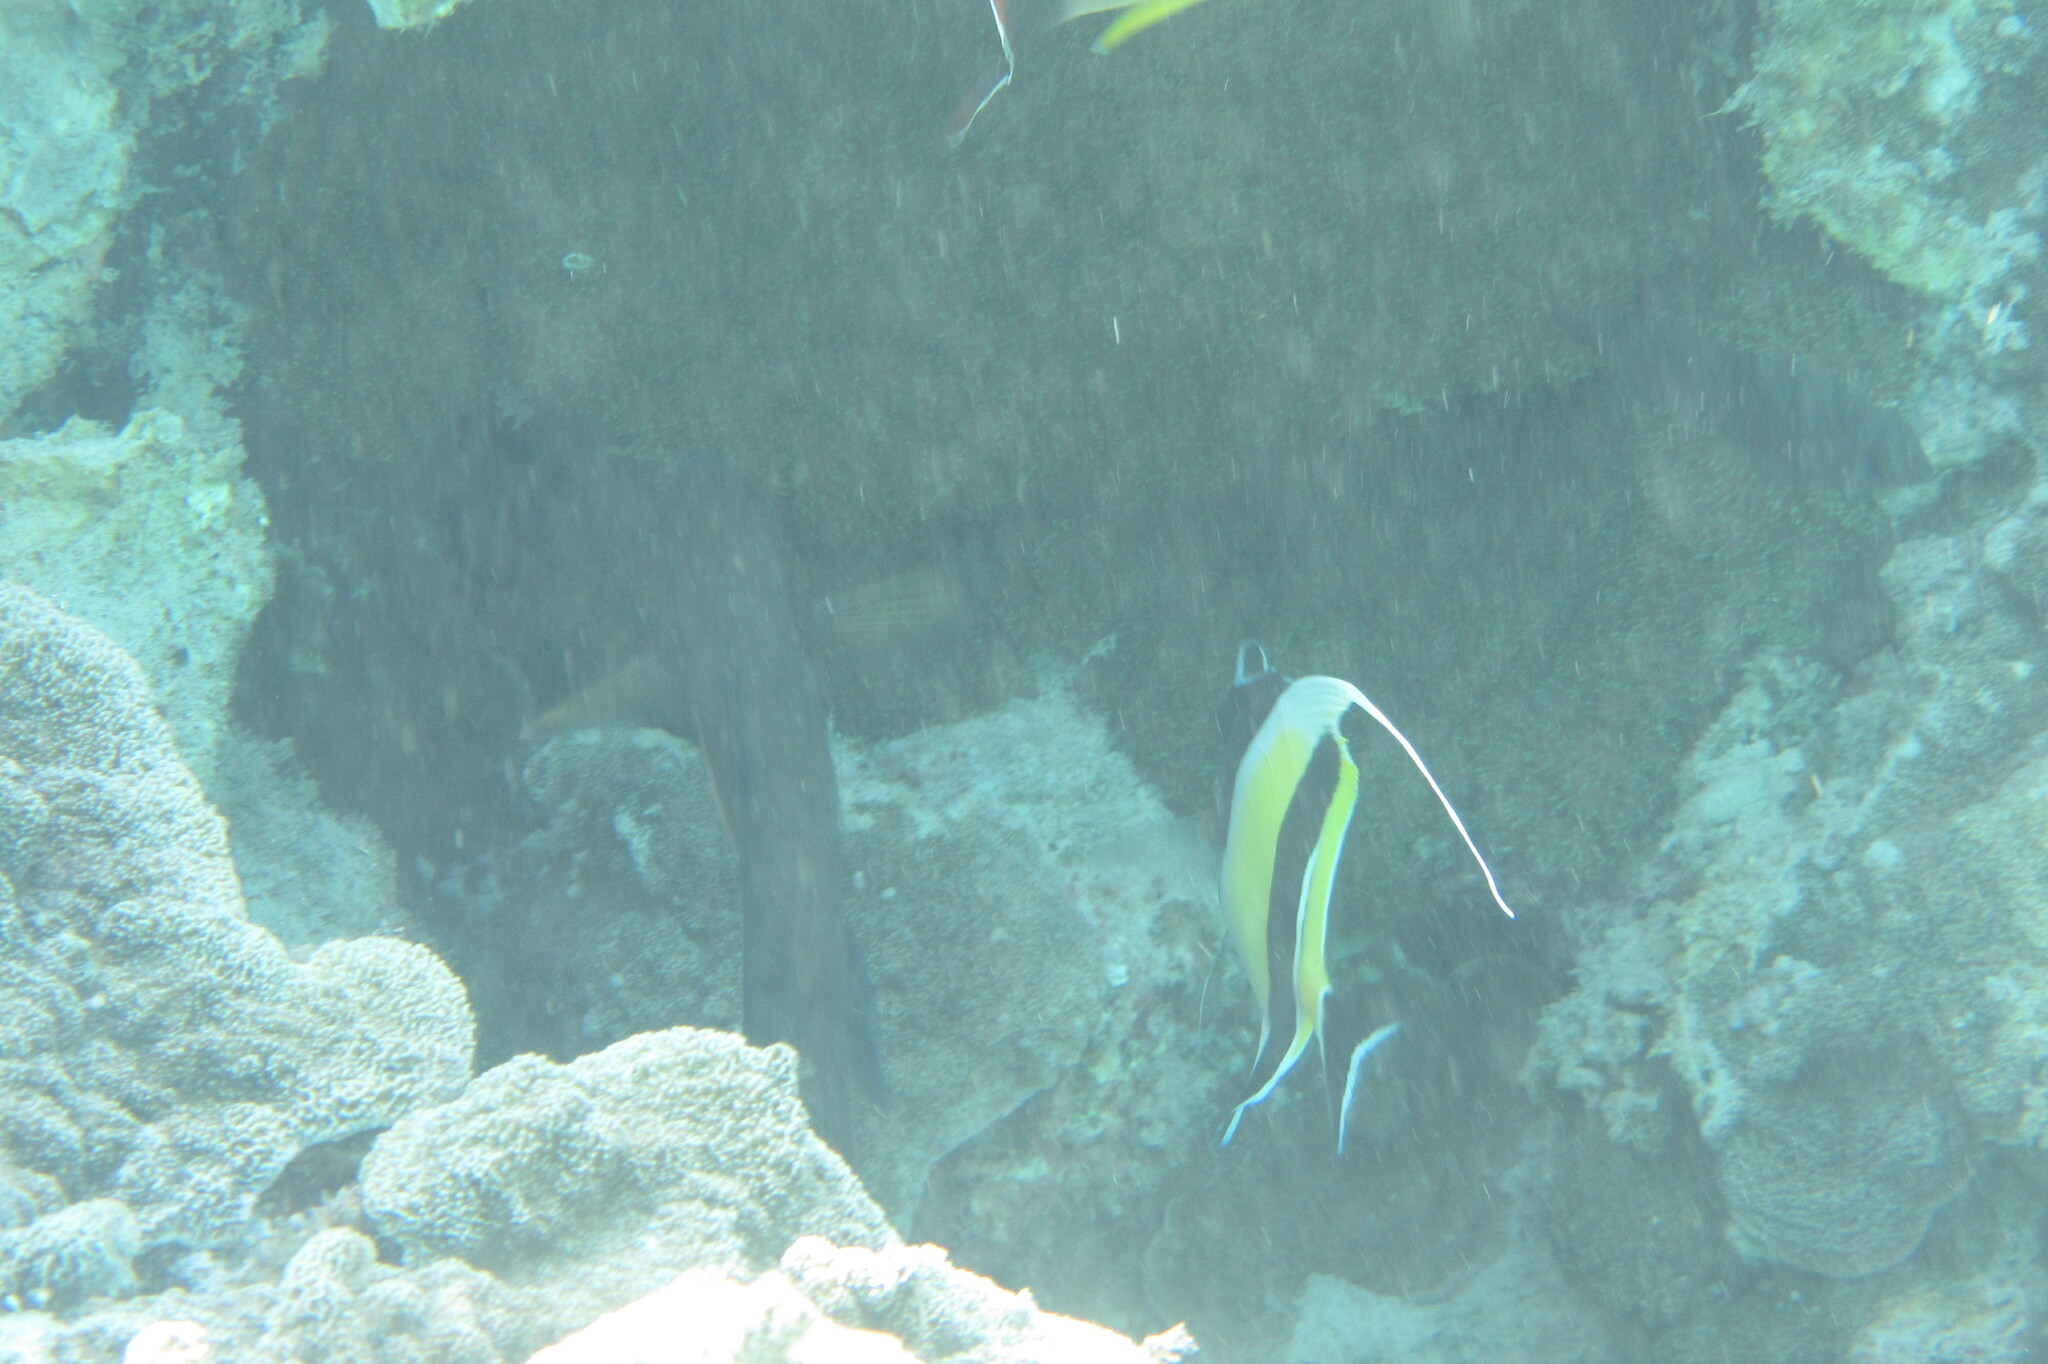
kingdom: Animalia
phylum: Chordata
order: Perciformes
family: Zanclidae
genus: Zanclus
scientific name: Zanclus cornutus
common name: Moorish idol
